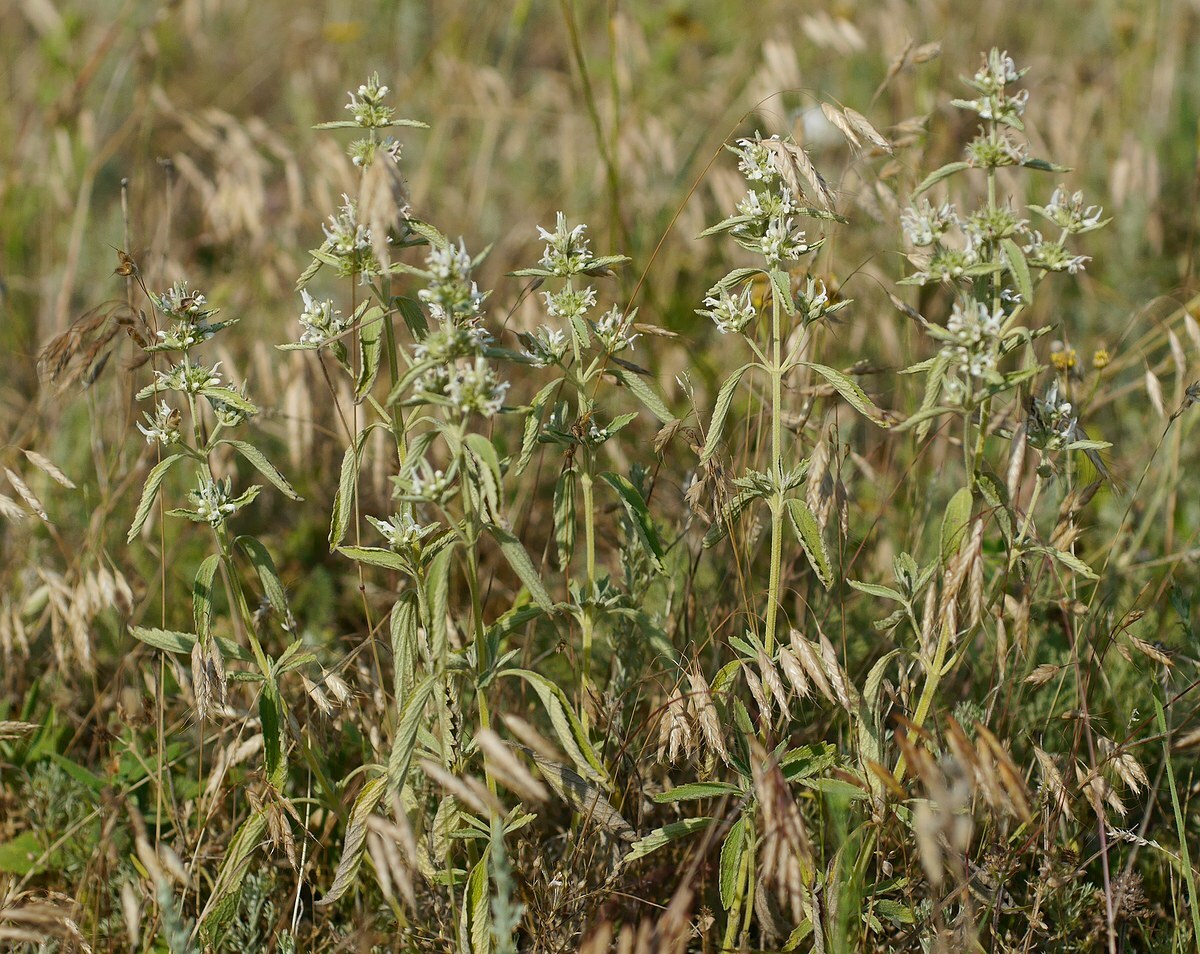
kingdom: Plantae
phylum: Tracheophyta
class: Magnoliopsida
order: Lamiales
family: Lamiaceae
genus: Marrubium
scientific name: Marrubium peregrinum
